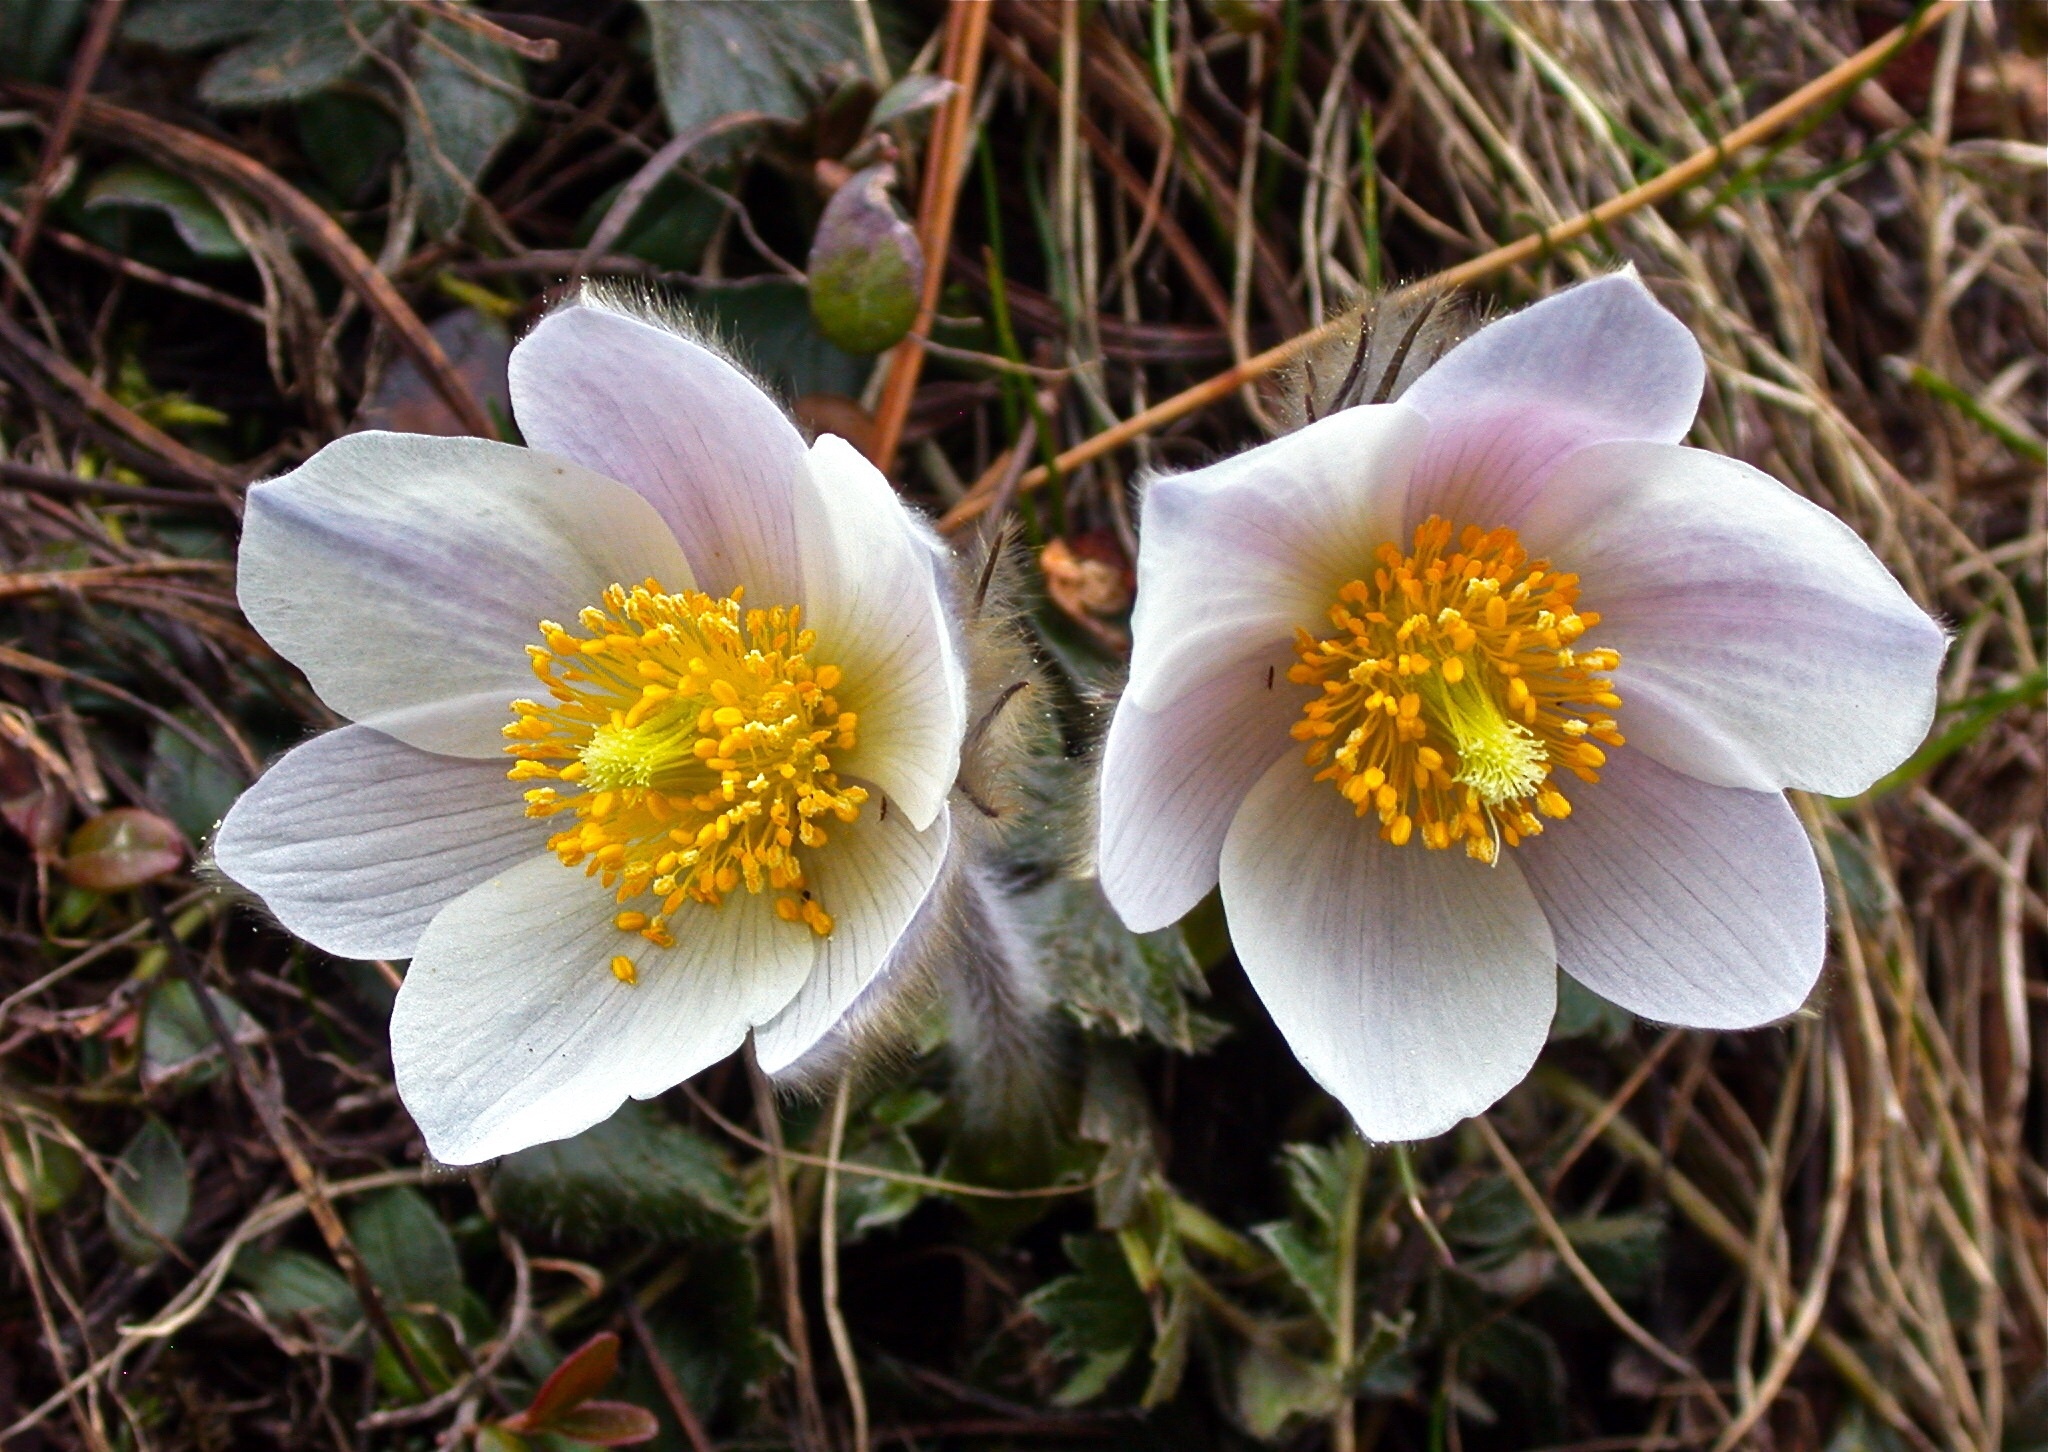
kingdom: Plantae
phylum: Tracheophyta
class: Magnoliopsida
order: Ranunculales
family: Ranunculaceae
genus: Pulsatilla
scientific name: Pulsatilla vernalis
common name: Spring pasque flower
